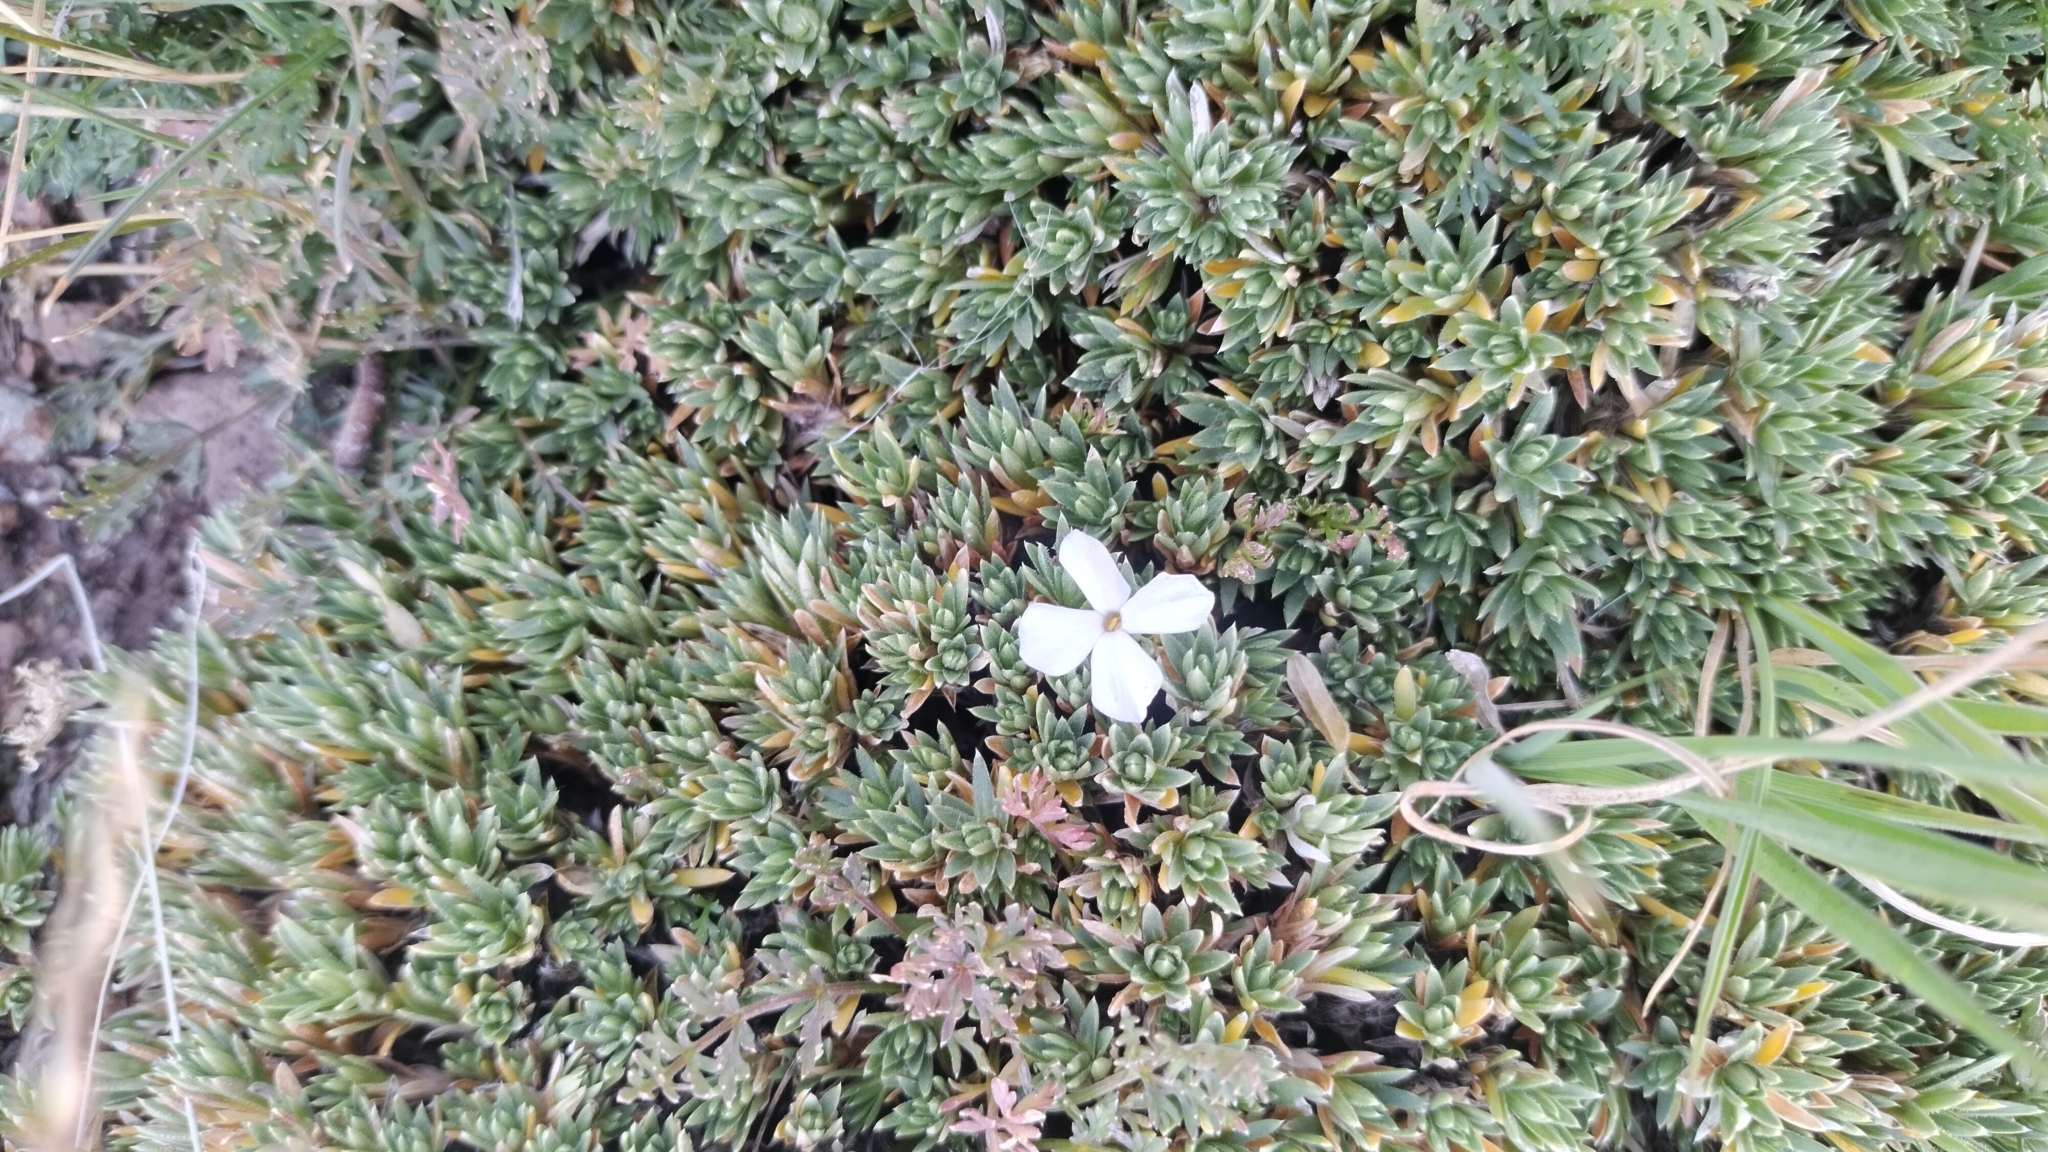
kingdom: Plantae
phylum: Tracheophyta
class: Magnoliopsida
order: Ericales
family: Polemoniaceae
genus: Phlox
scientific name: Phlox condensata
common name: Compact phlox
